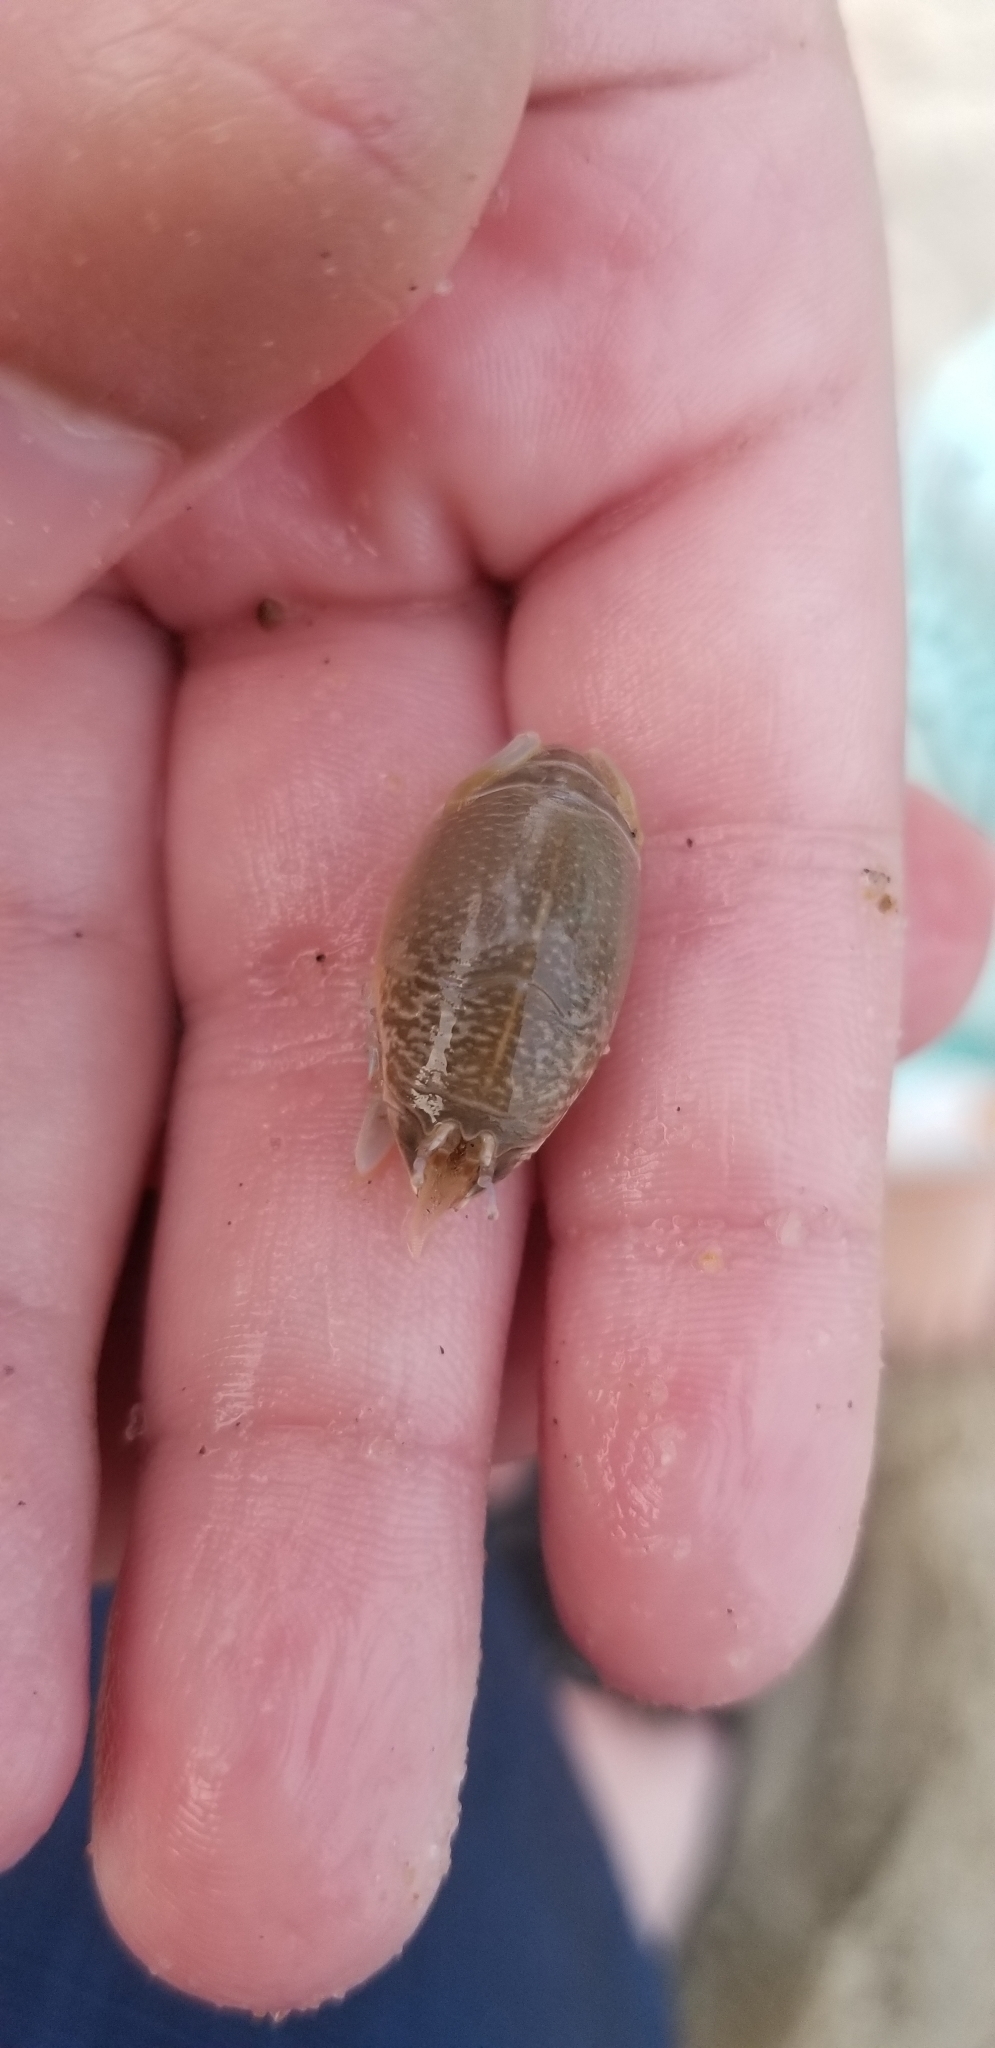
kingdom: Animalia
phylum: Arthropoda
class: Malacostraca
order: Decapoda
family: Hippidae
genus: Emerita
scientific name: Emerita talpoida
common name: Atlantic sand crab
